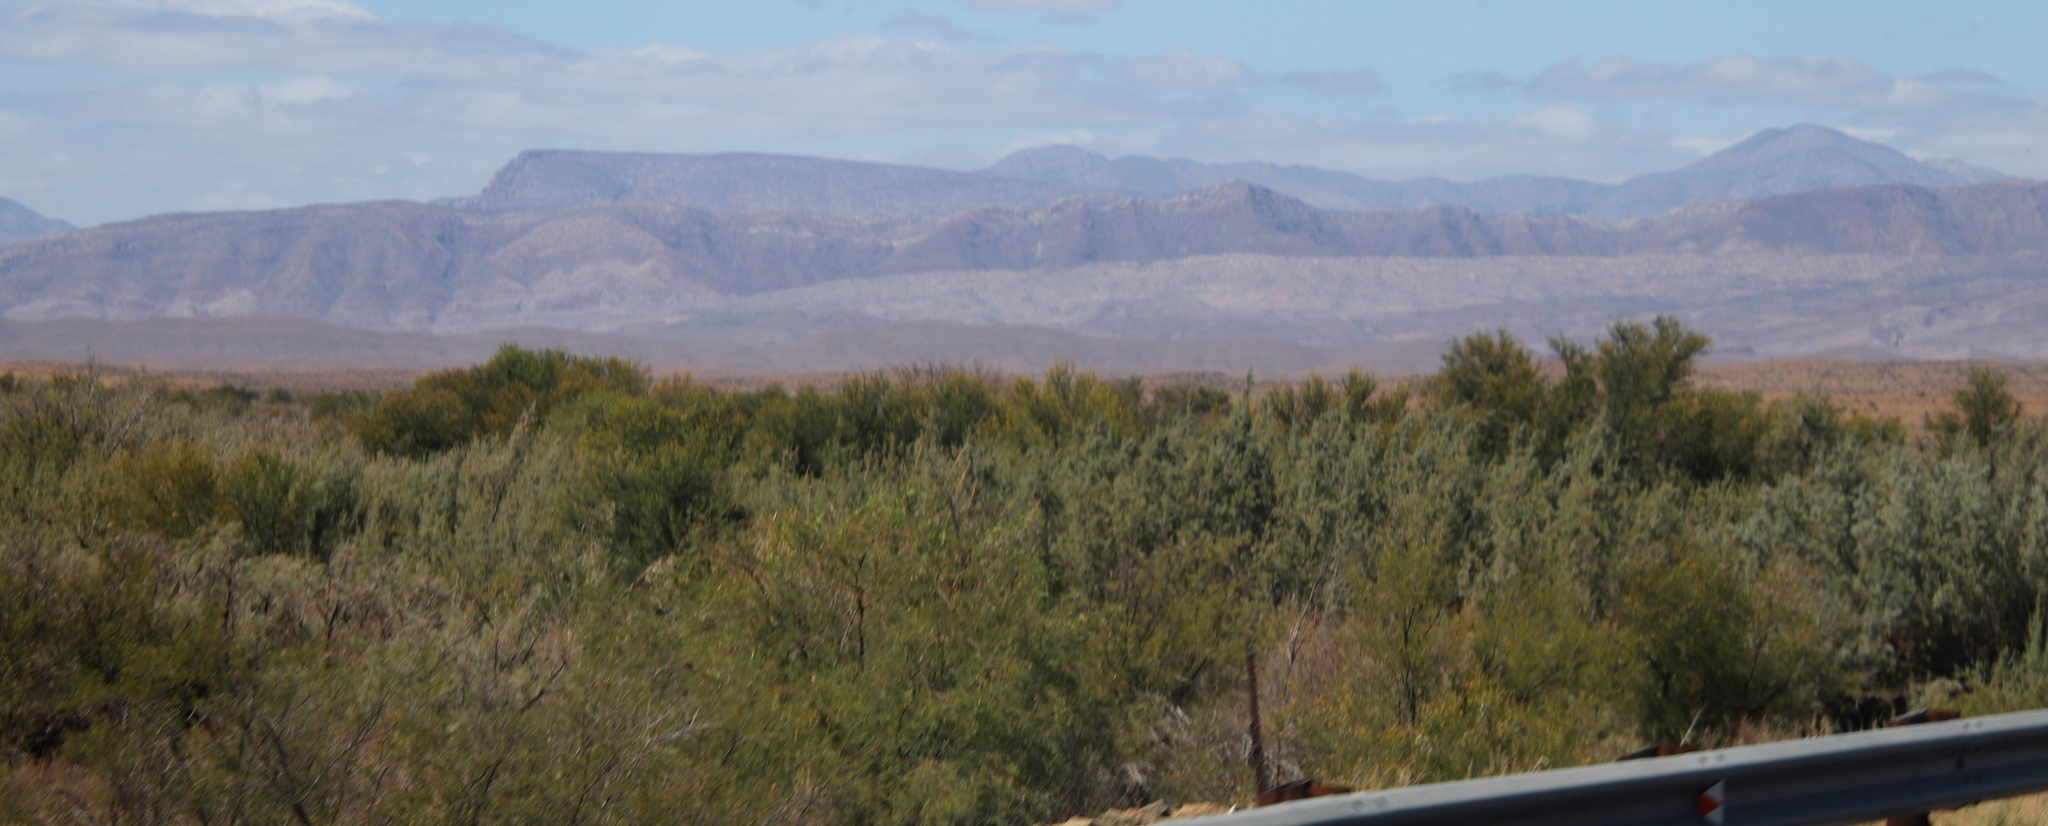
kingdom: Plantae
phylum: Tracheophyta
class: Magnoliopsida
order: Fabales
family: Fabaceae
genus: Vachellia
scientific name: Vachellia karroo
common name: Sweet thorn
